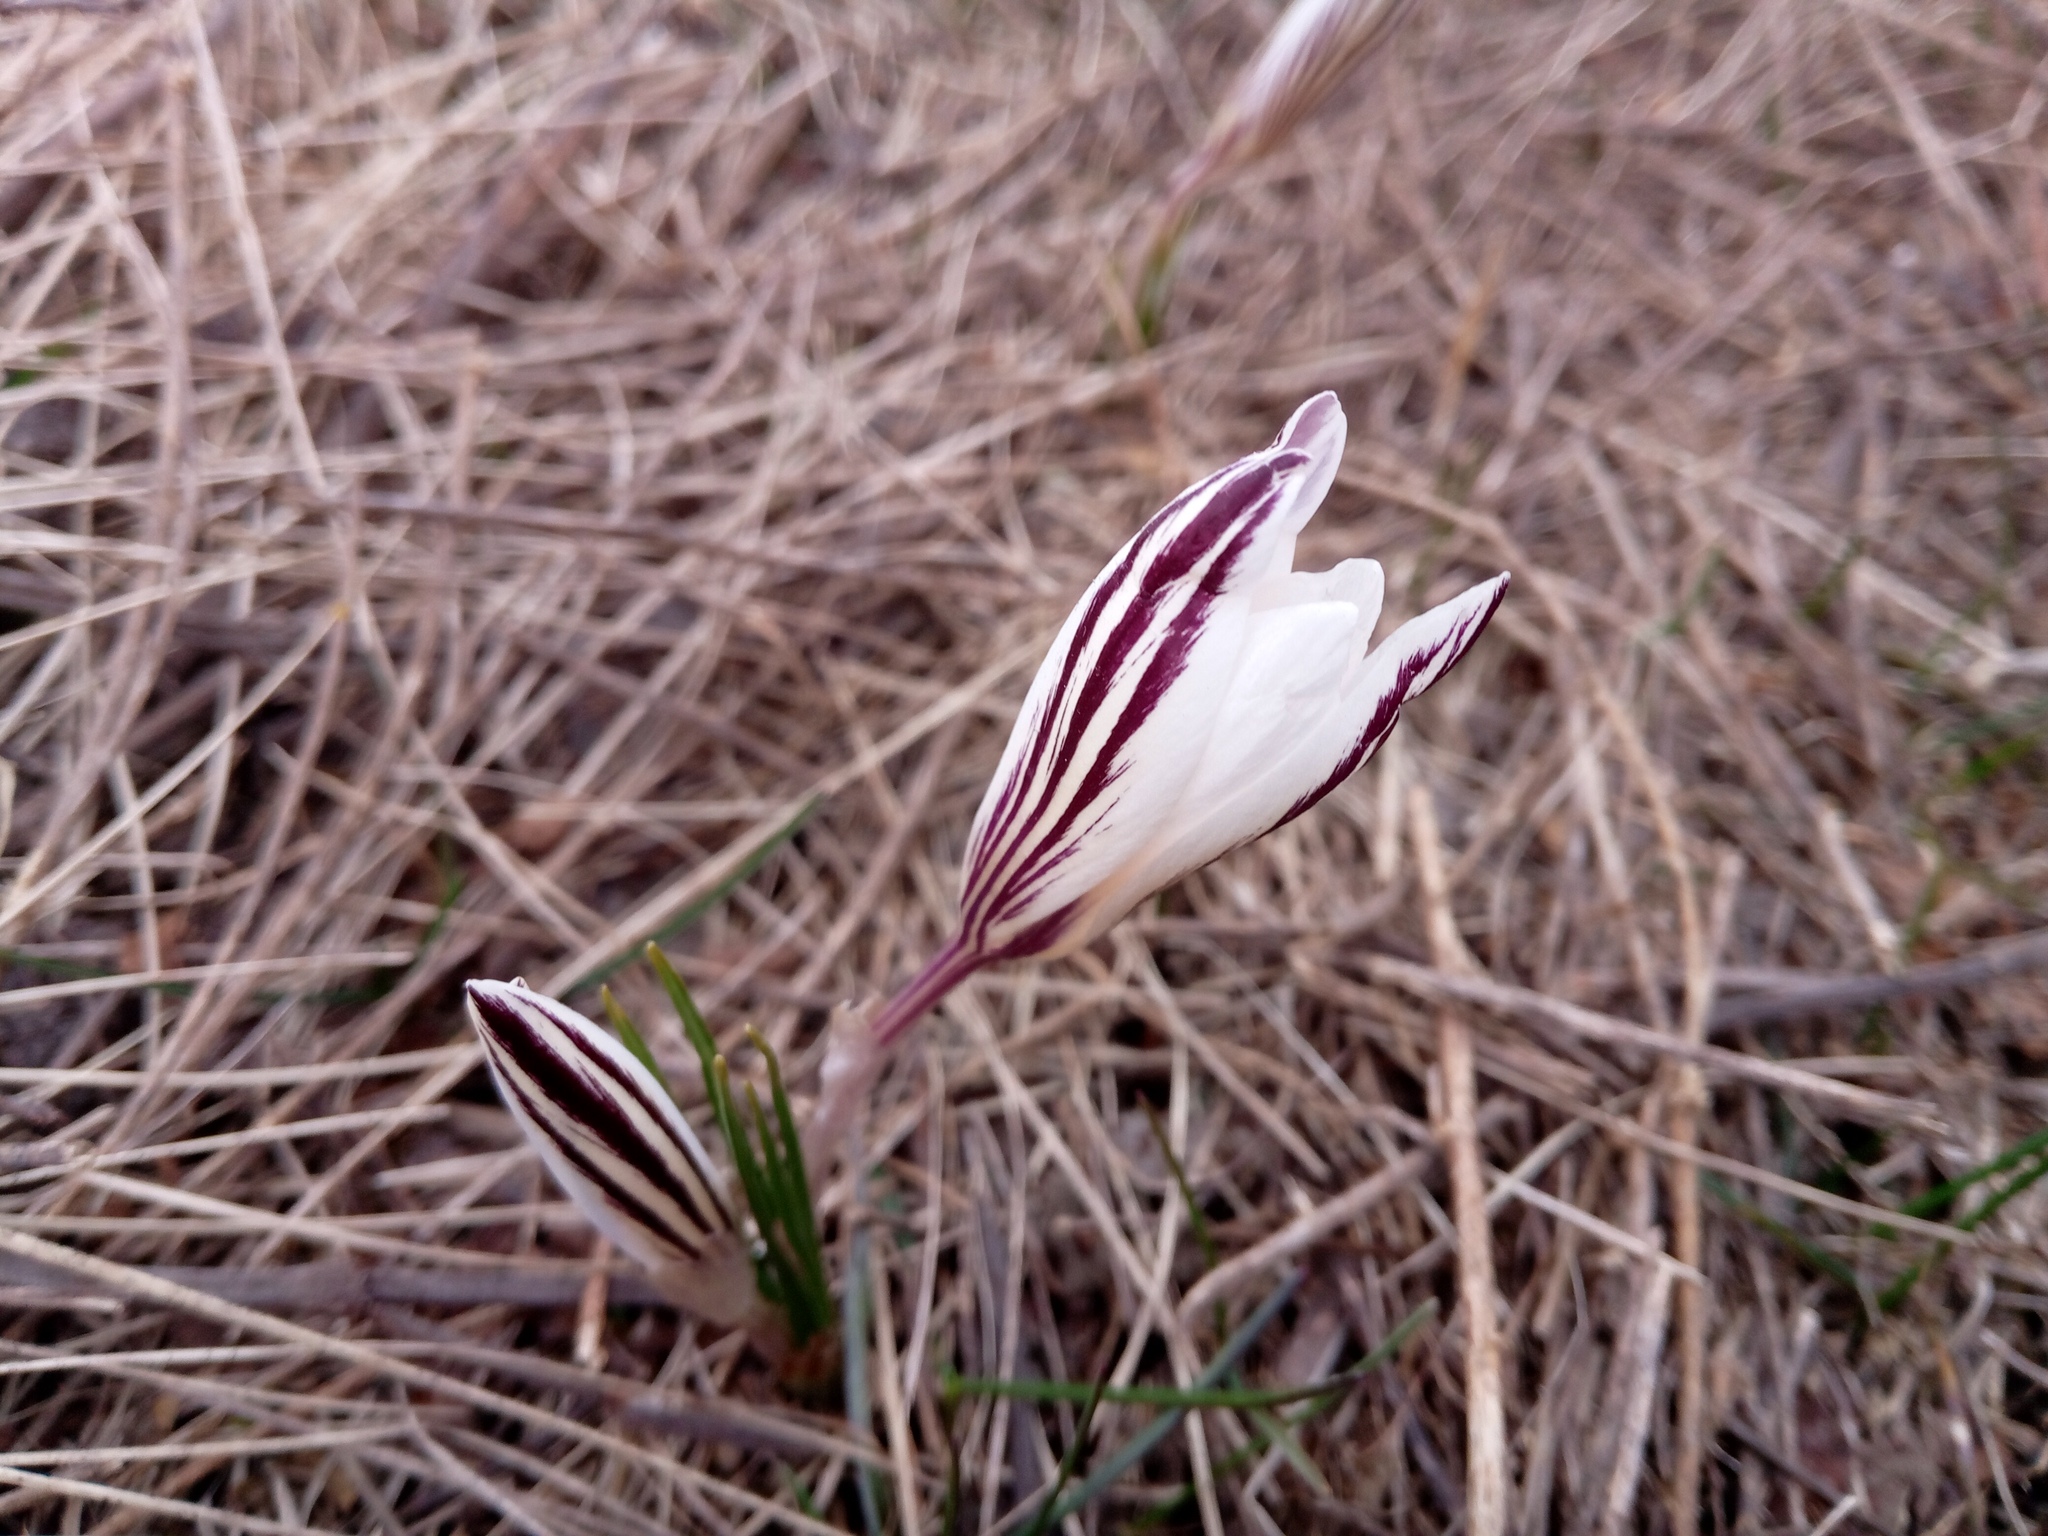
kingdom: Plantae
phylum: Tracheophyta
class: Liliopsida
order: Asparagales
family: Iridaceae
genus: Crocus
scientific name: Crocus reticulatus
